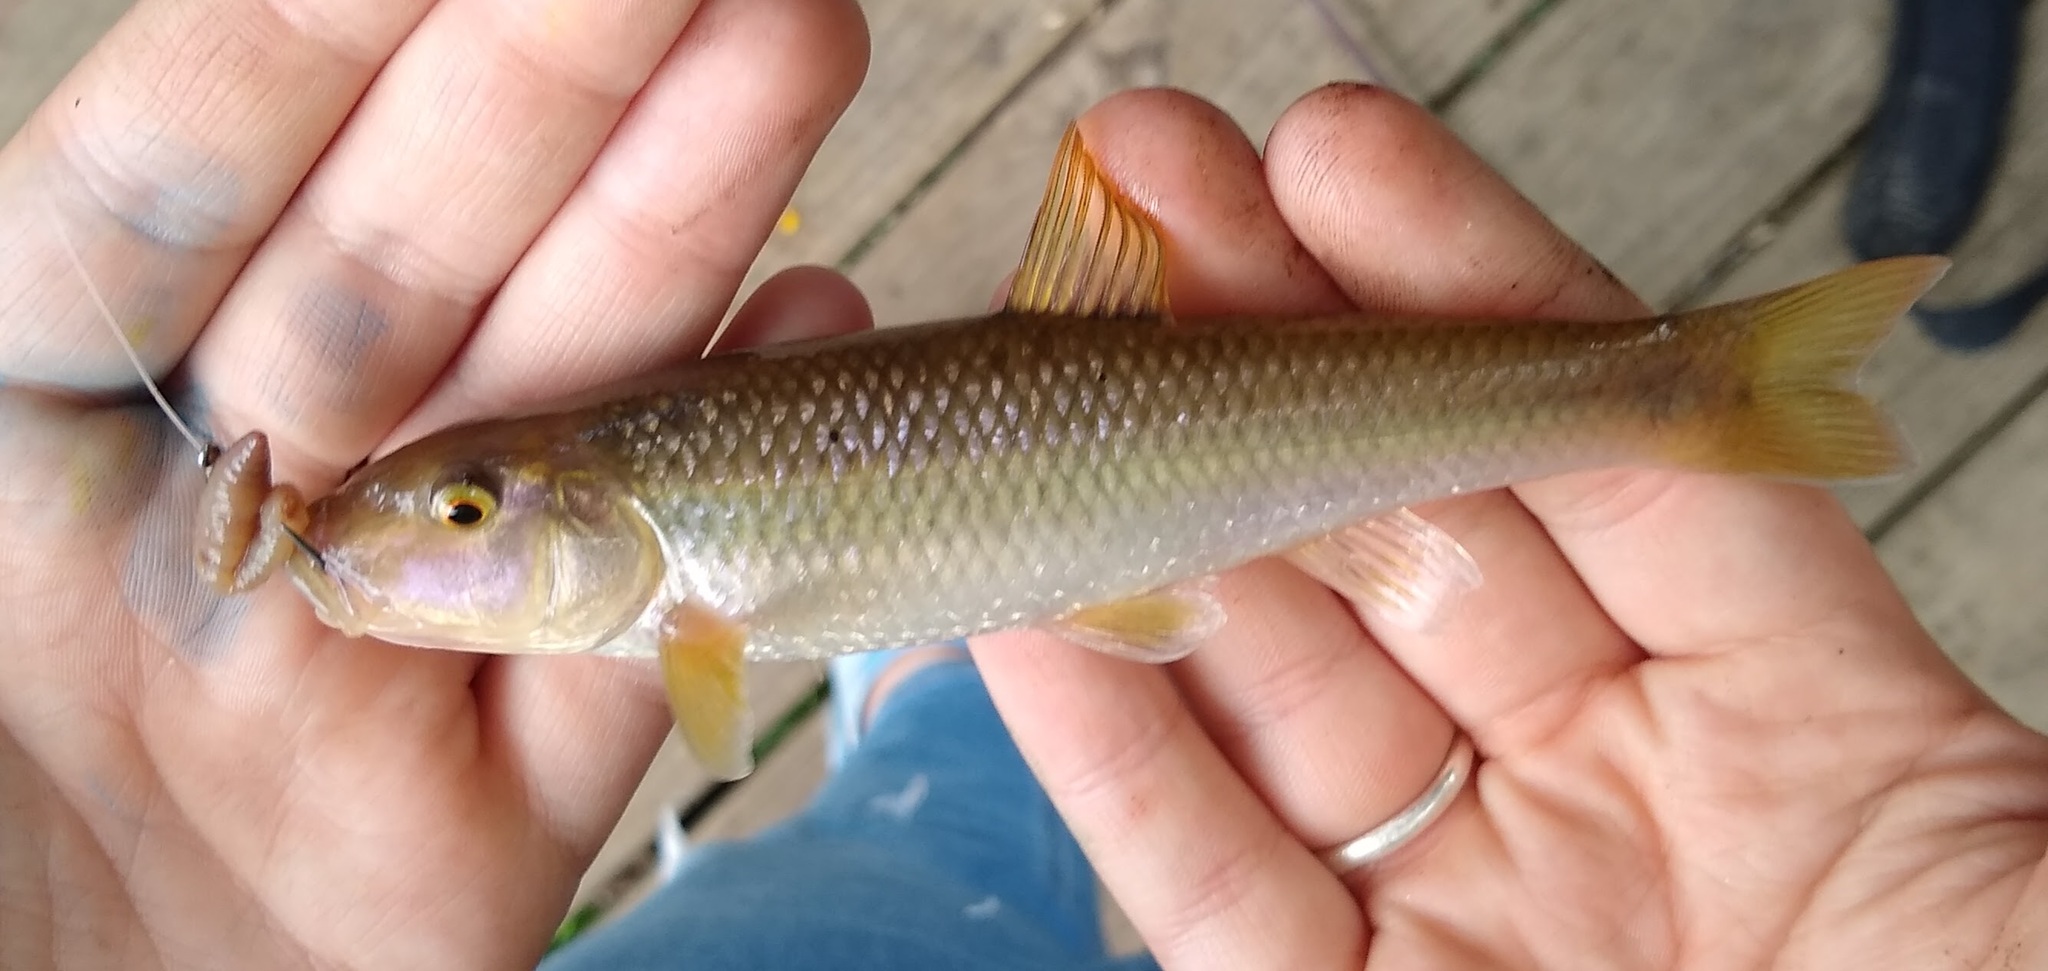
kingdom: Animalia
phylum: Chordata
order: Cypriniformes
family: Cyprinidae
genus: Nocomis
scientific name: Nocomis micropogon
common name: River chub
